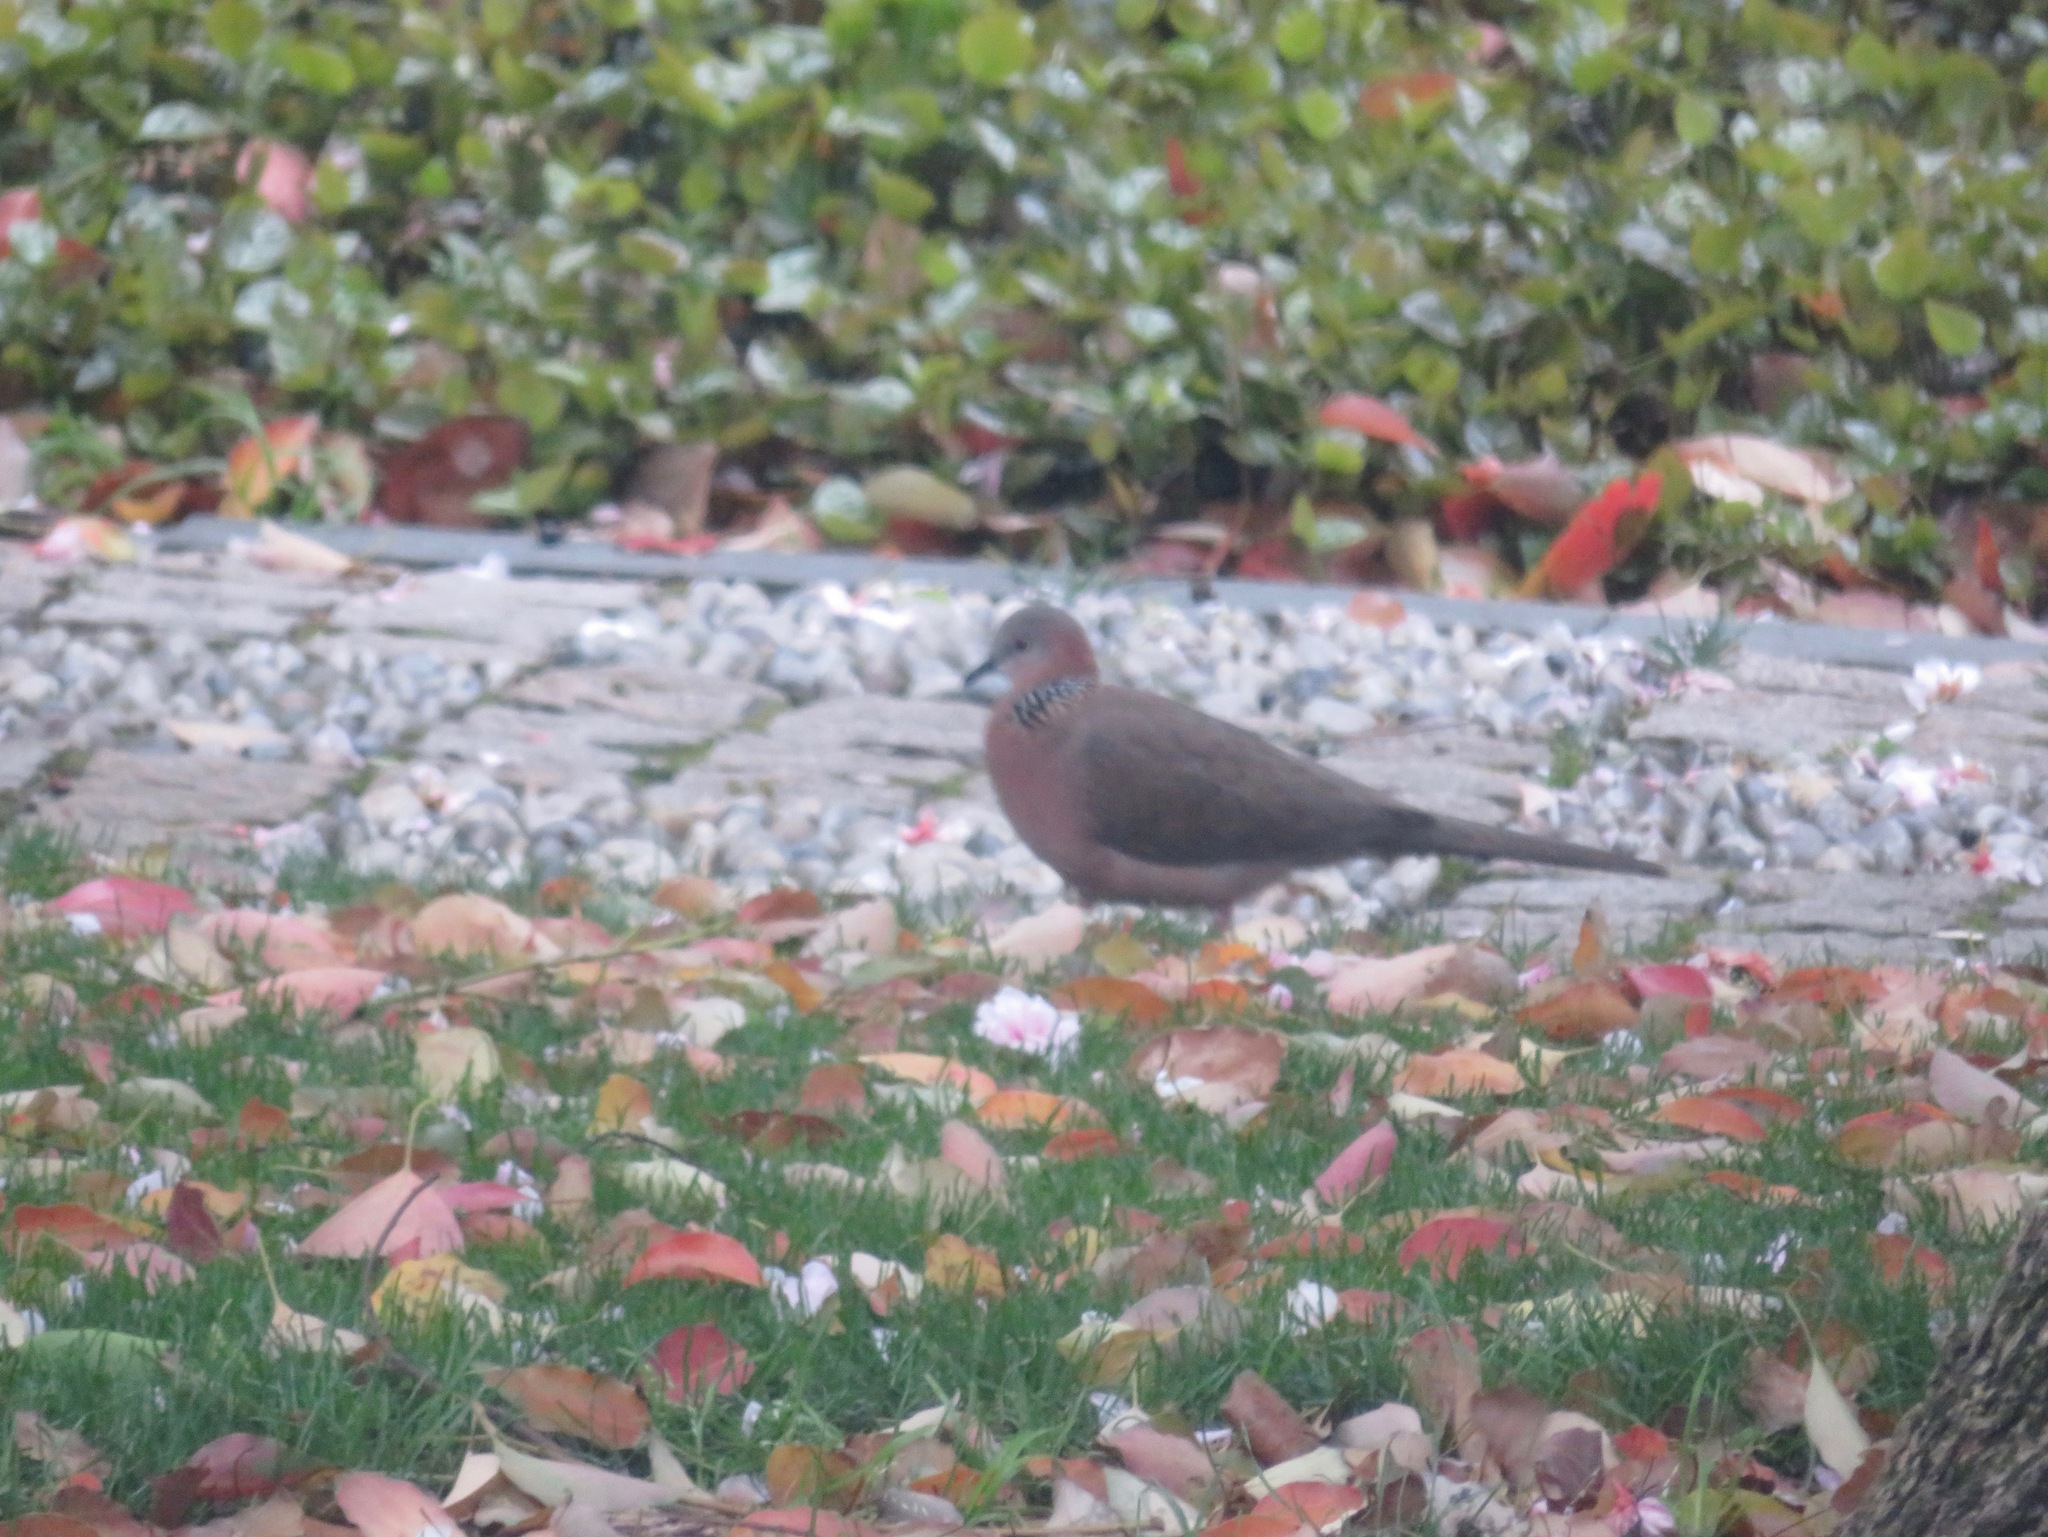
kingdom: Animalia
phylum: Chordata
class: Aves
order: Columbiformes
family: Columbidae
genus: Spilopelia
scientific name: Spilopelia chinensis
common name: Spotted dove
